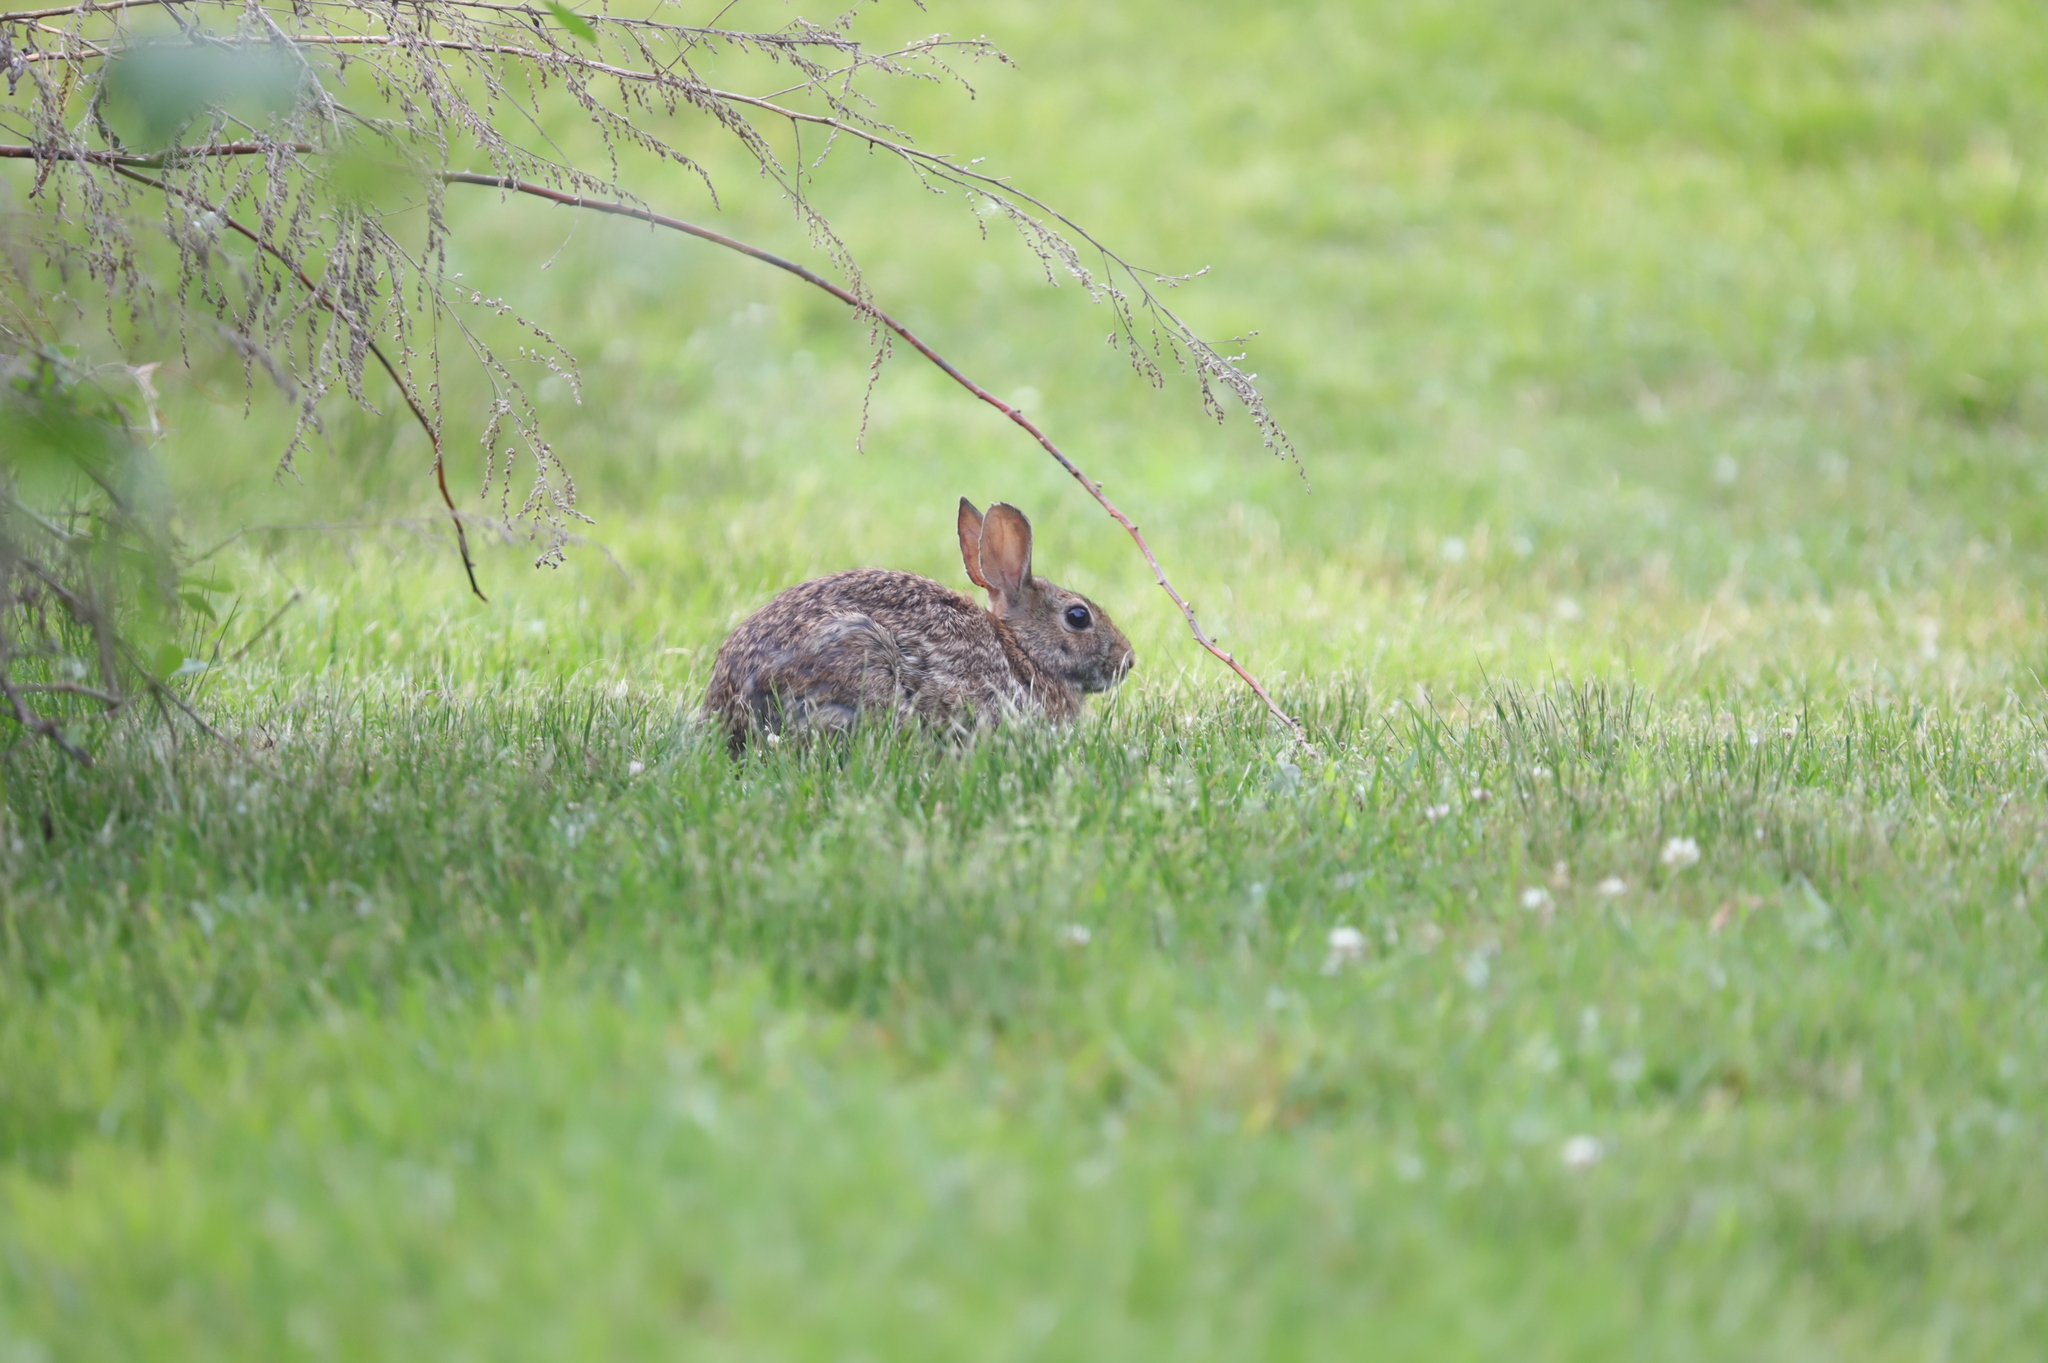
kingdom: Animalia
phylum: Chordata
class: Mammalia
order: Lagomorpha
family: Leporidae
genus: Sylvilagus
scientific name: Sylvilagus floridanus
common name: Eastern cottontail
